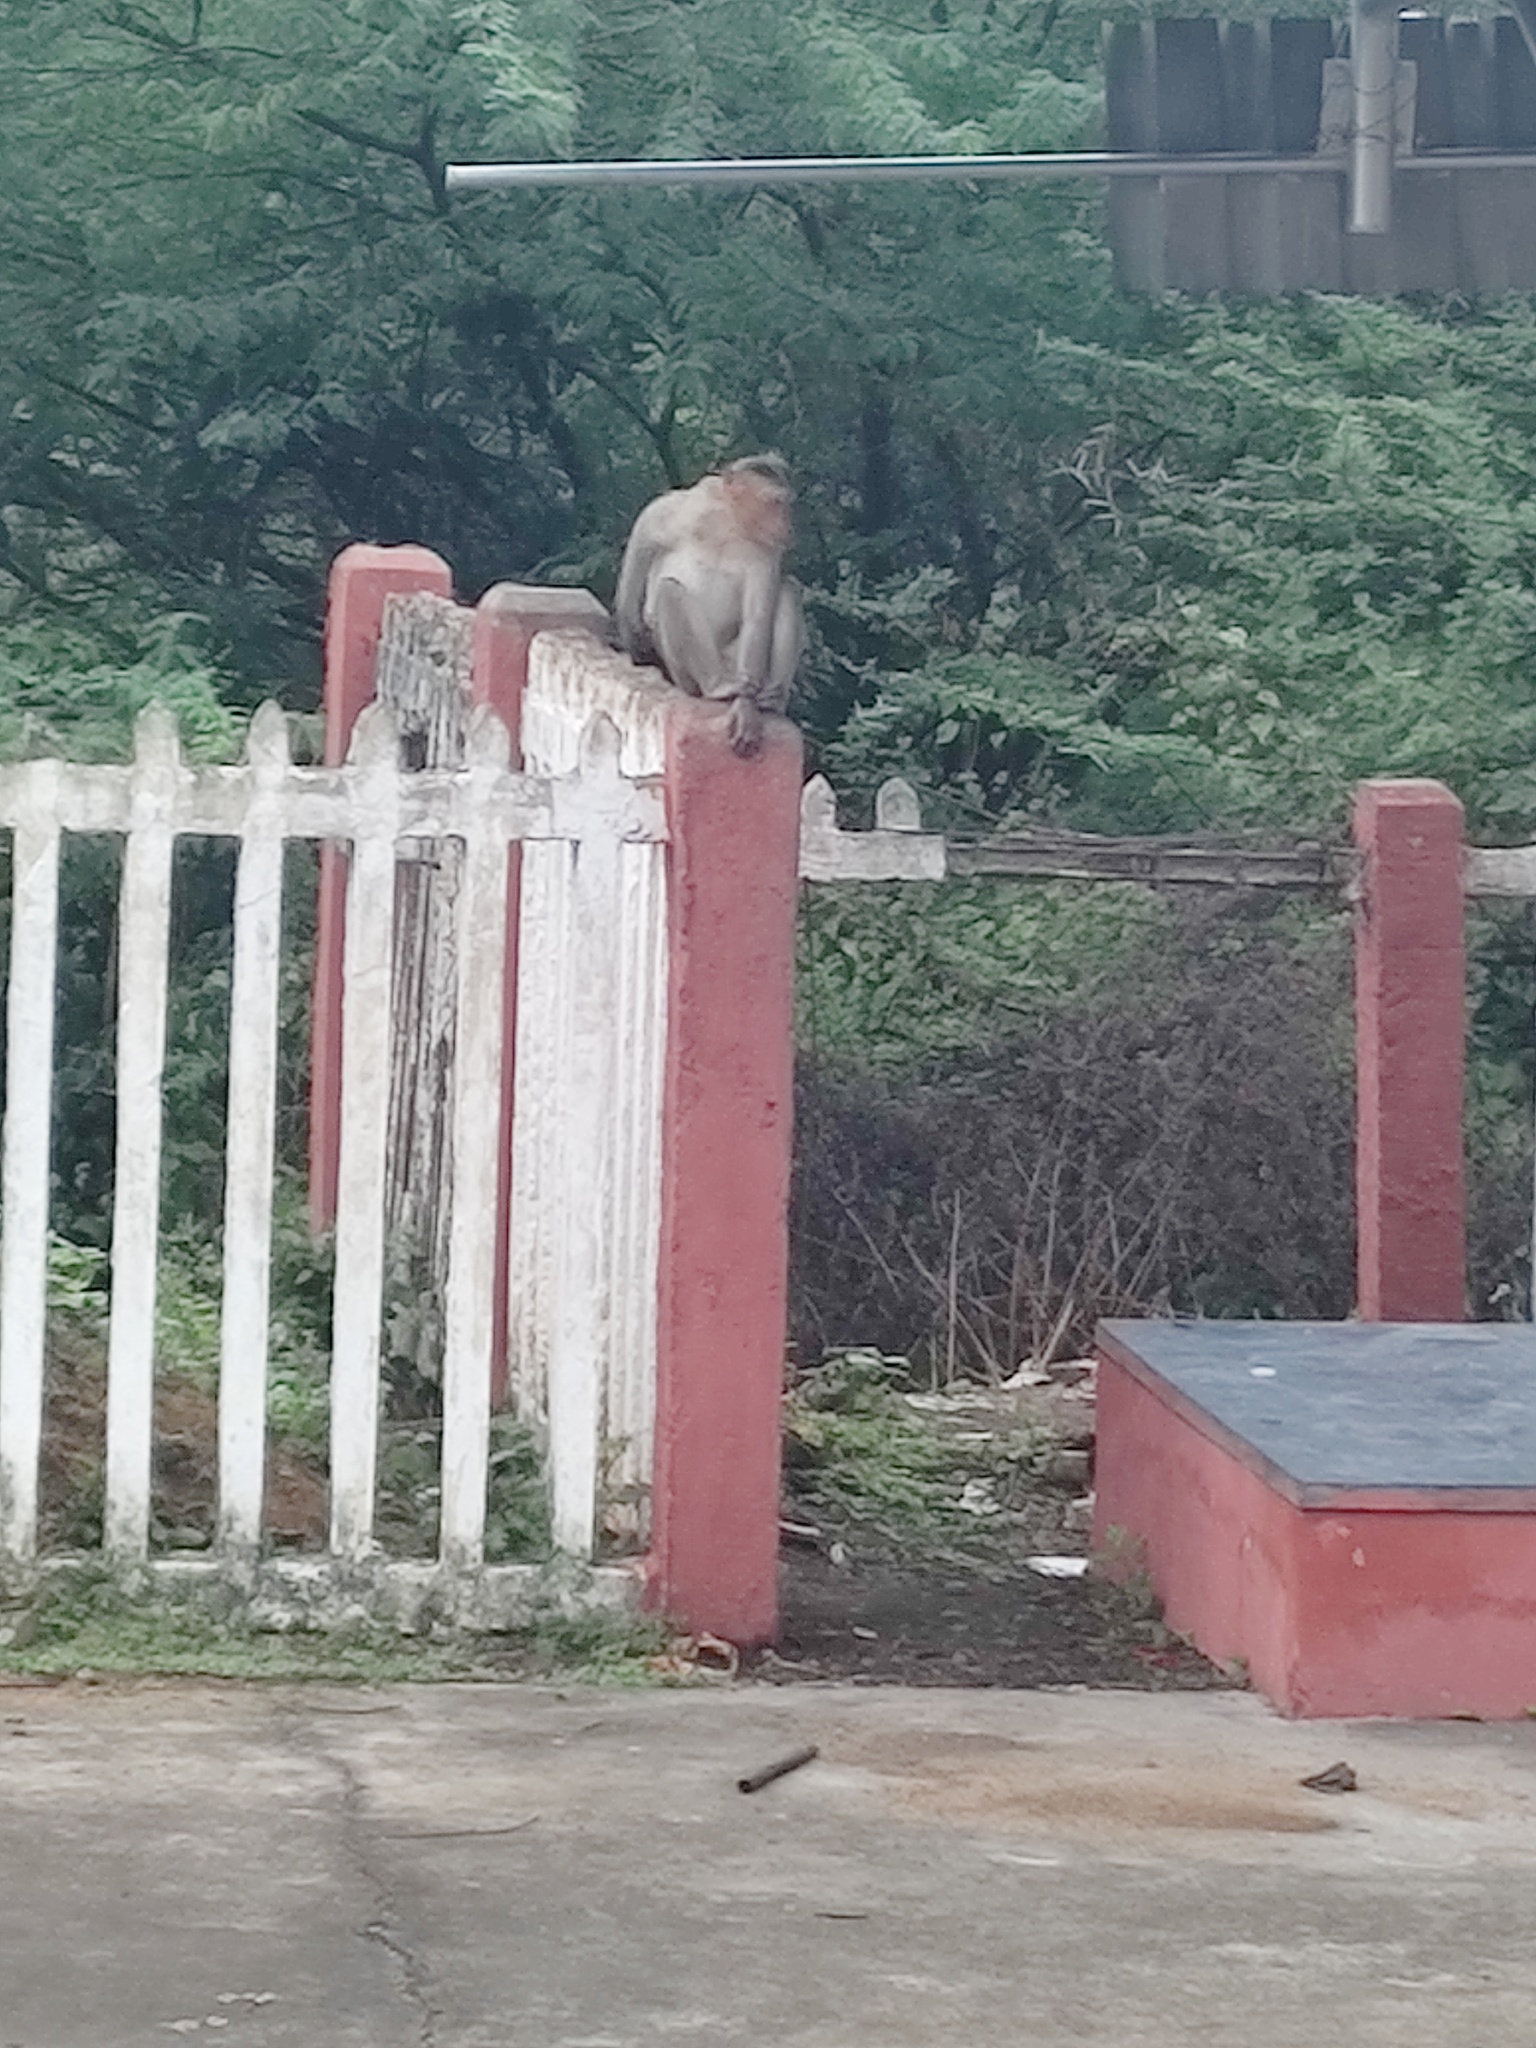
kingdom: Animalia
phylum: Chordata
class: Mammalia
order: Primates
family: Cercopithecidae
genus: Macaca
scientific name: Macaca radiata
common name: Bonnet macaque
